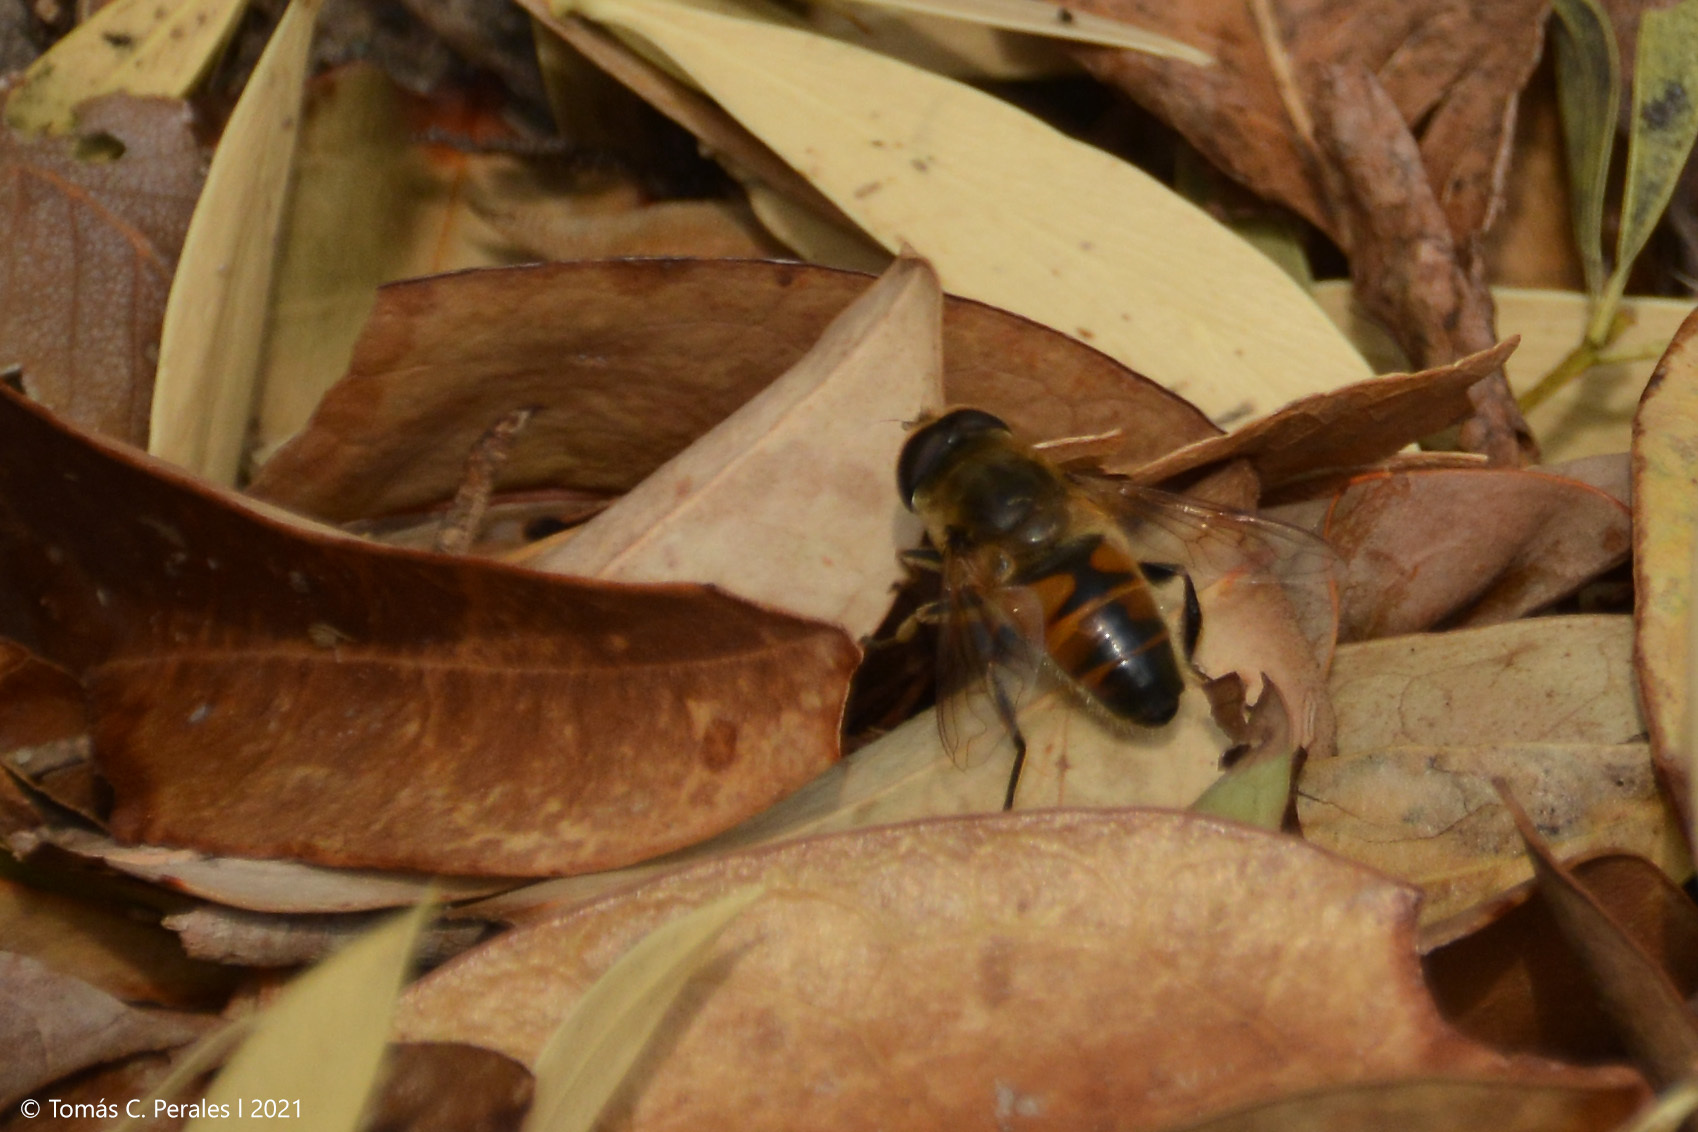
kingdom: Animalia
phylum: Arthropoda
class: Insecta
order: Diptera
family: Syrphidae
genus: Eristalis
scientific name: Eristalis tenax
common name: Drone fly
